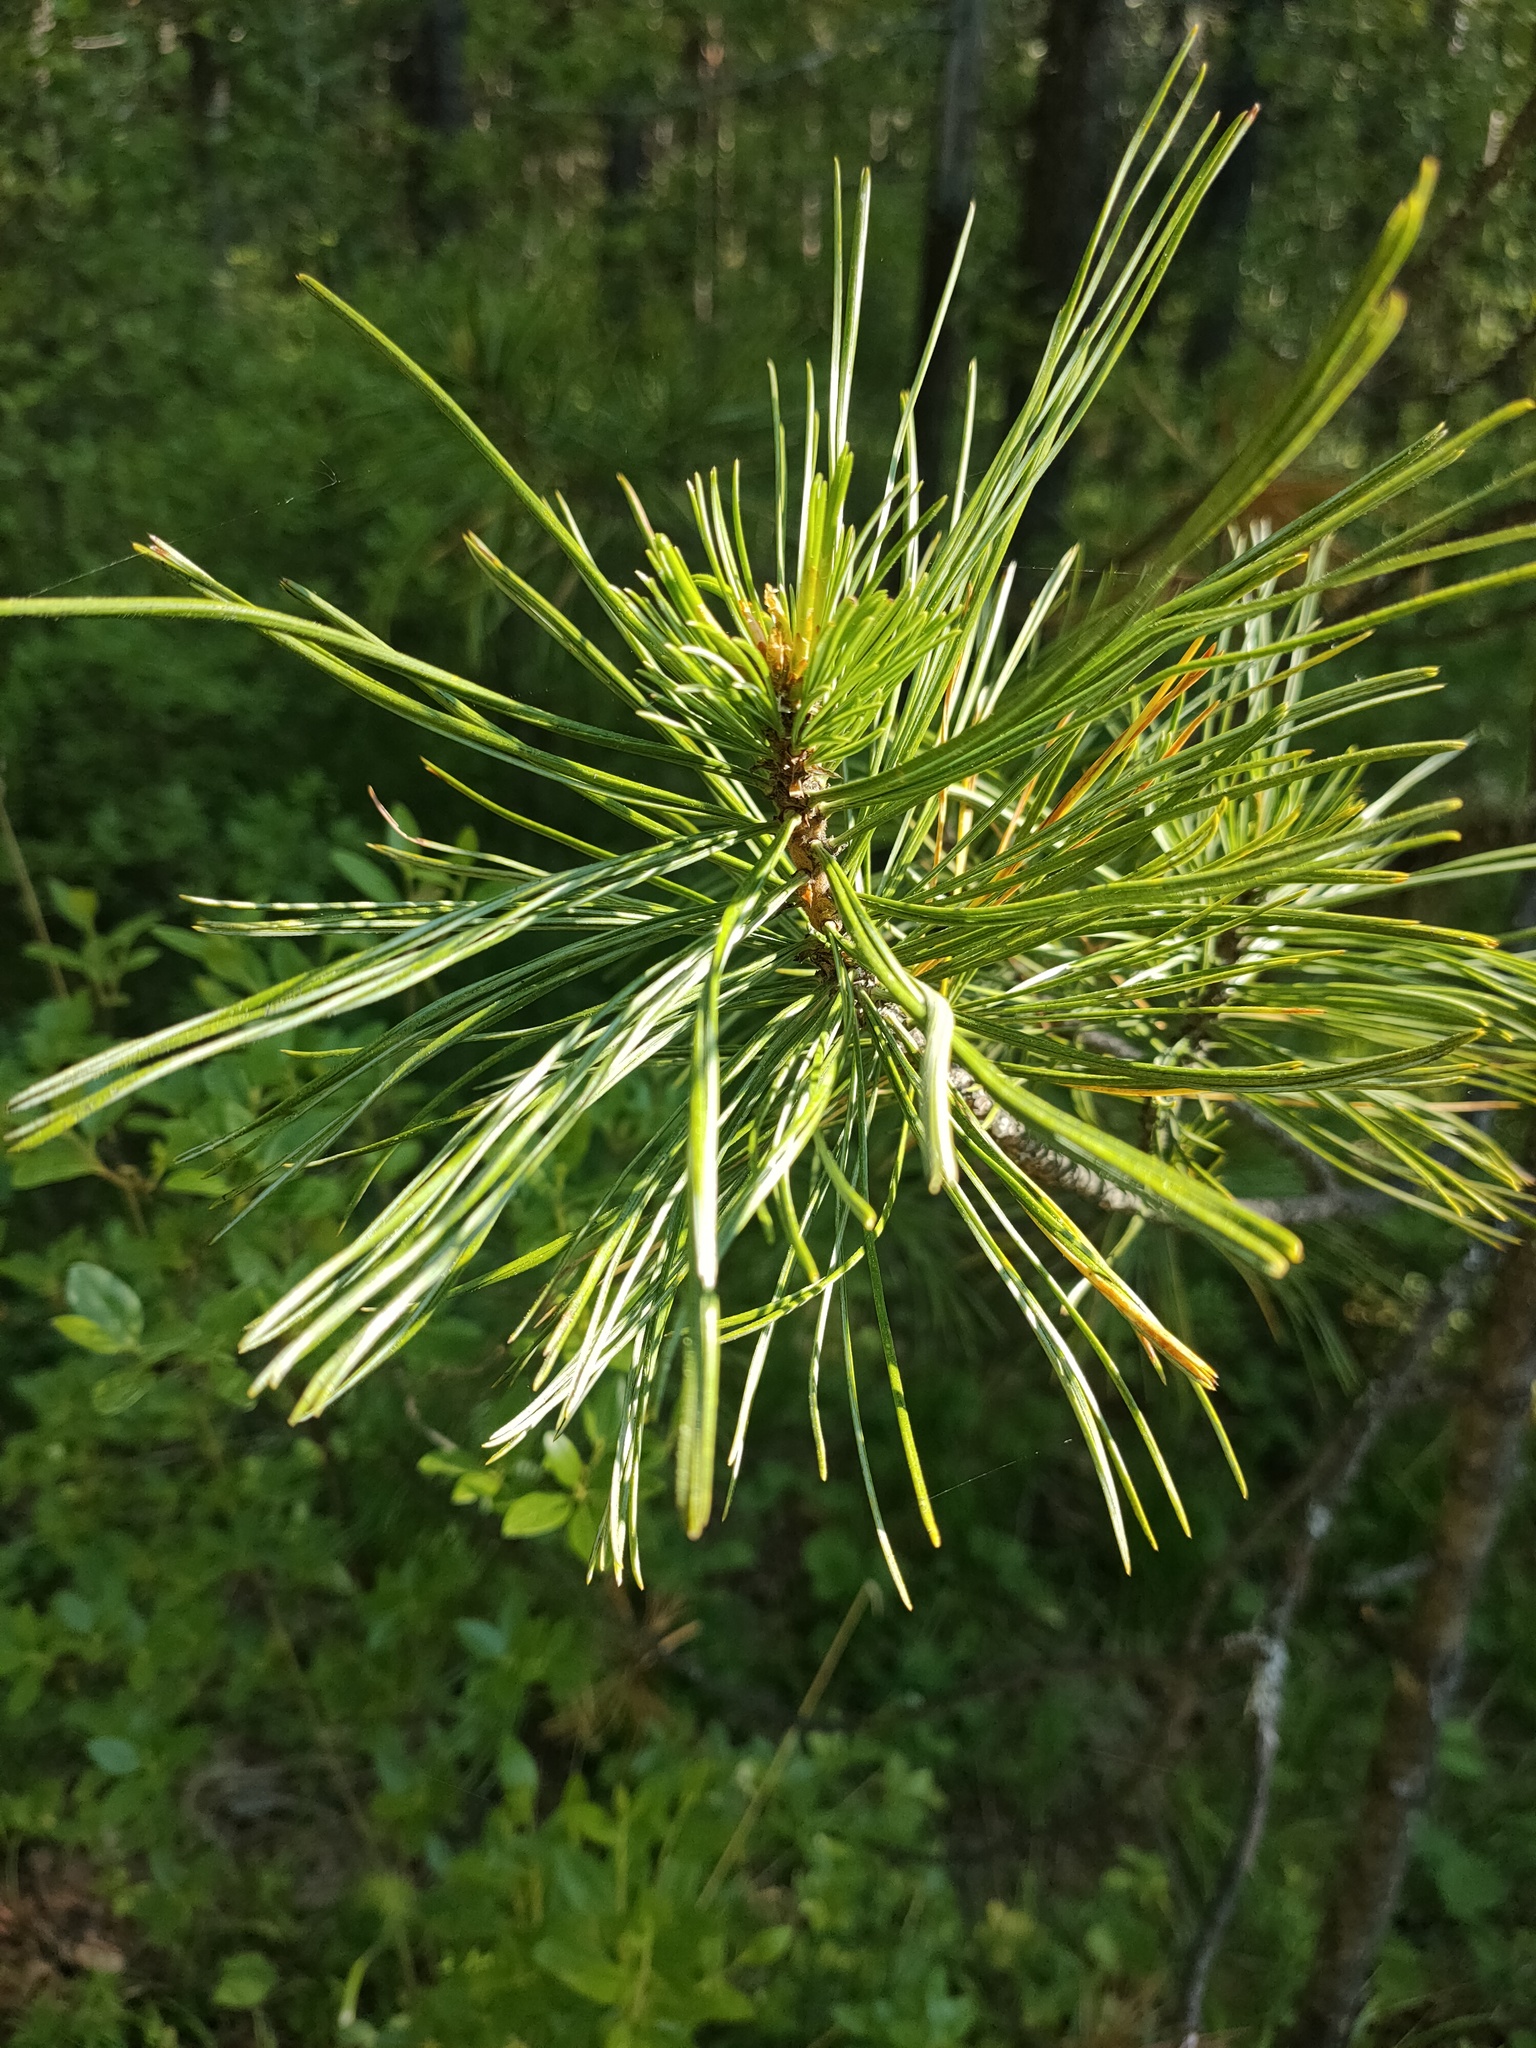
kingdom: Plantae
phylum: Tracheophyta
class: Pinopsida
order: Pinales
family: Pinaceae
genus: Pinus
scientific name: Pinus sylvestris
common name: Scots pine
